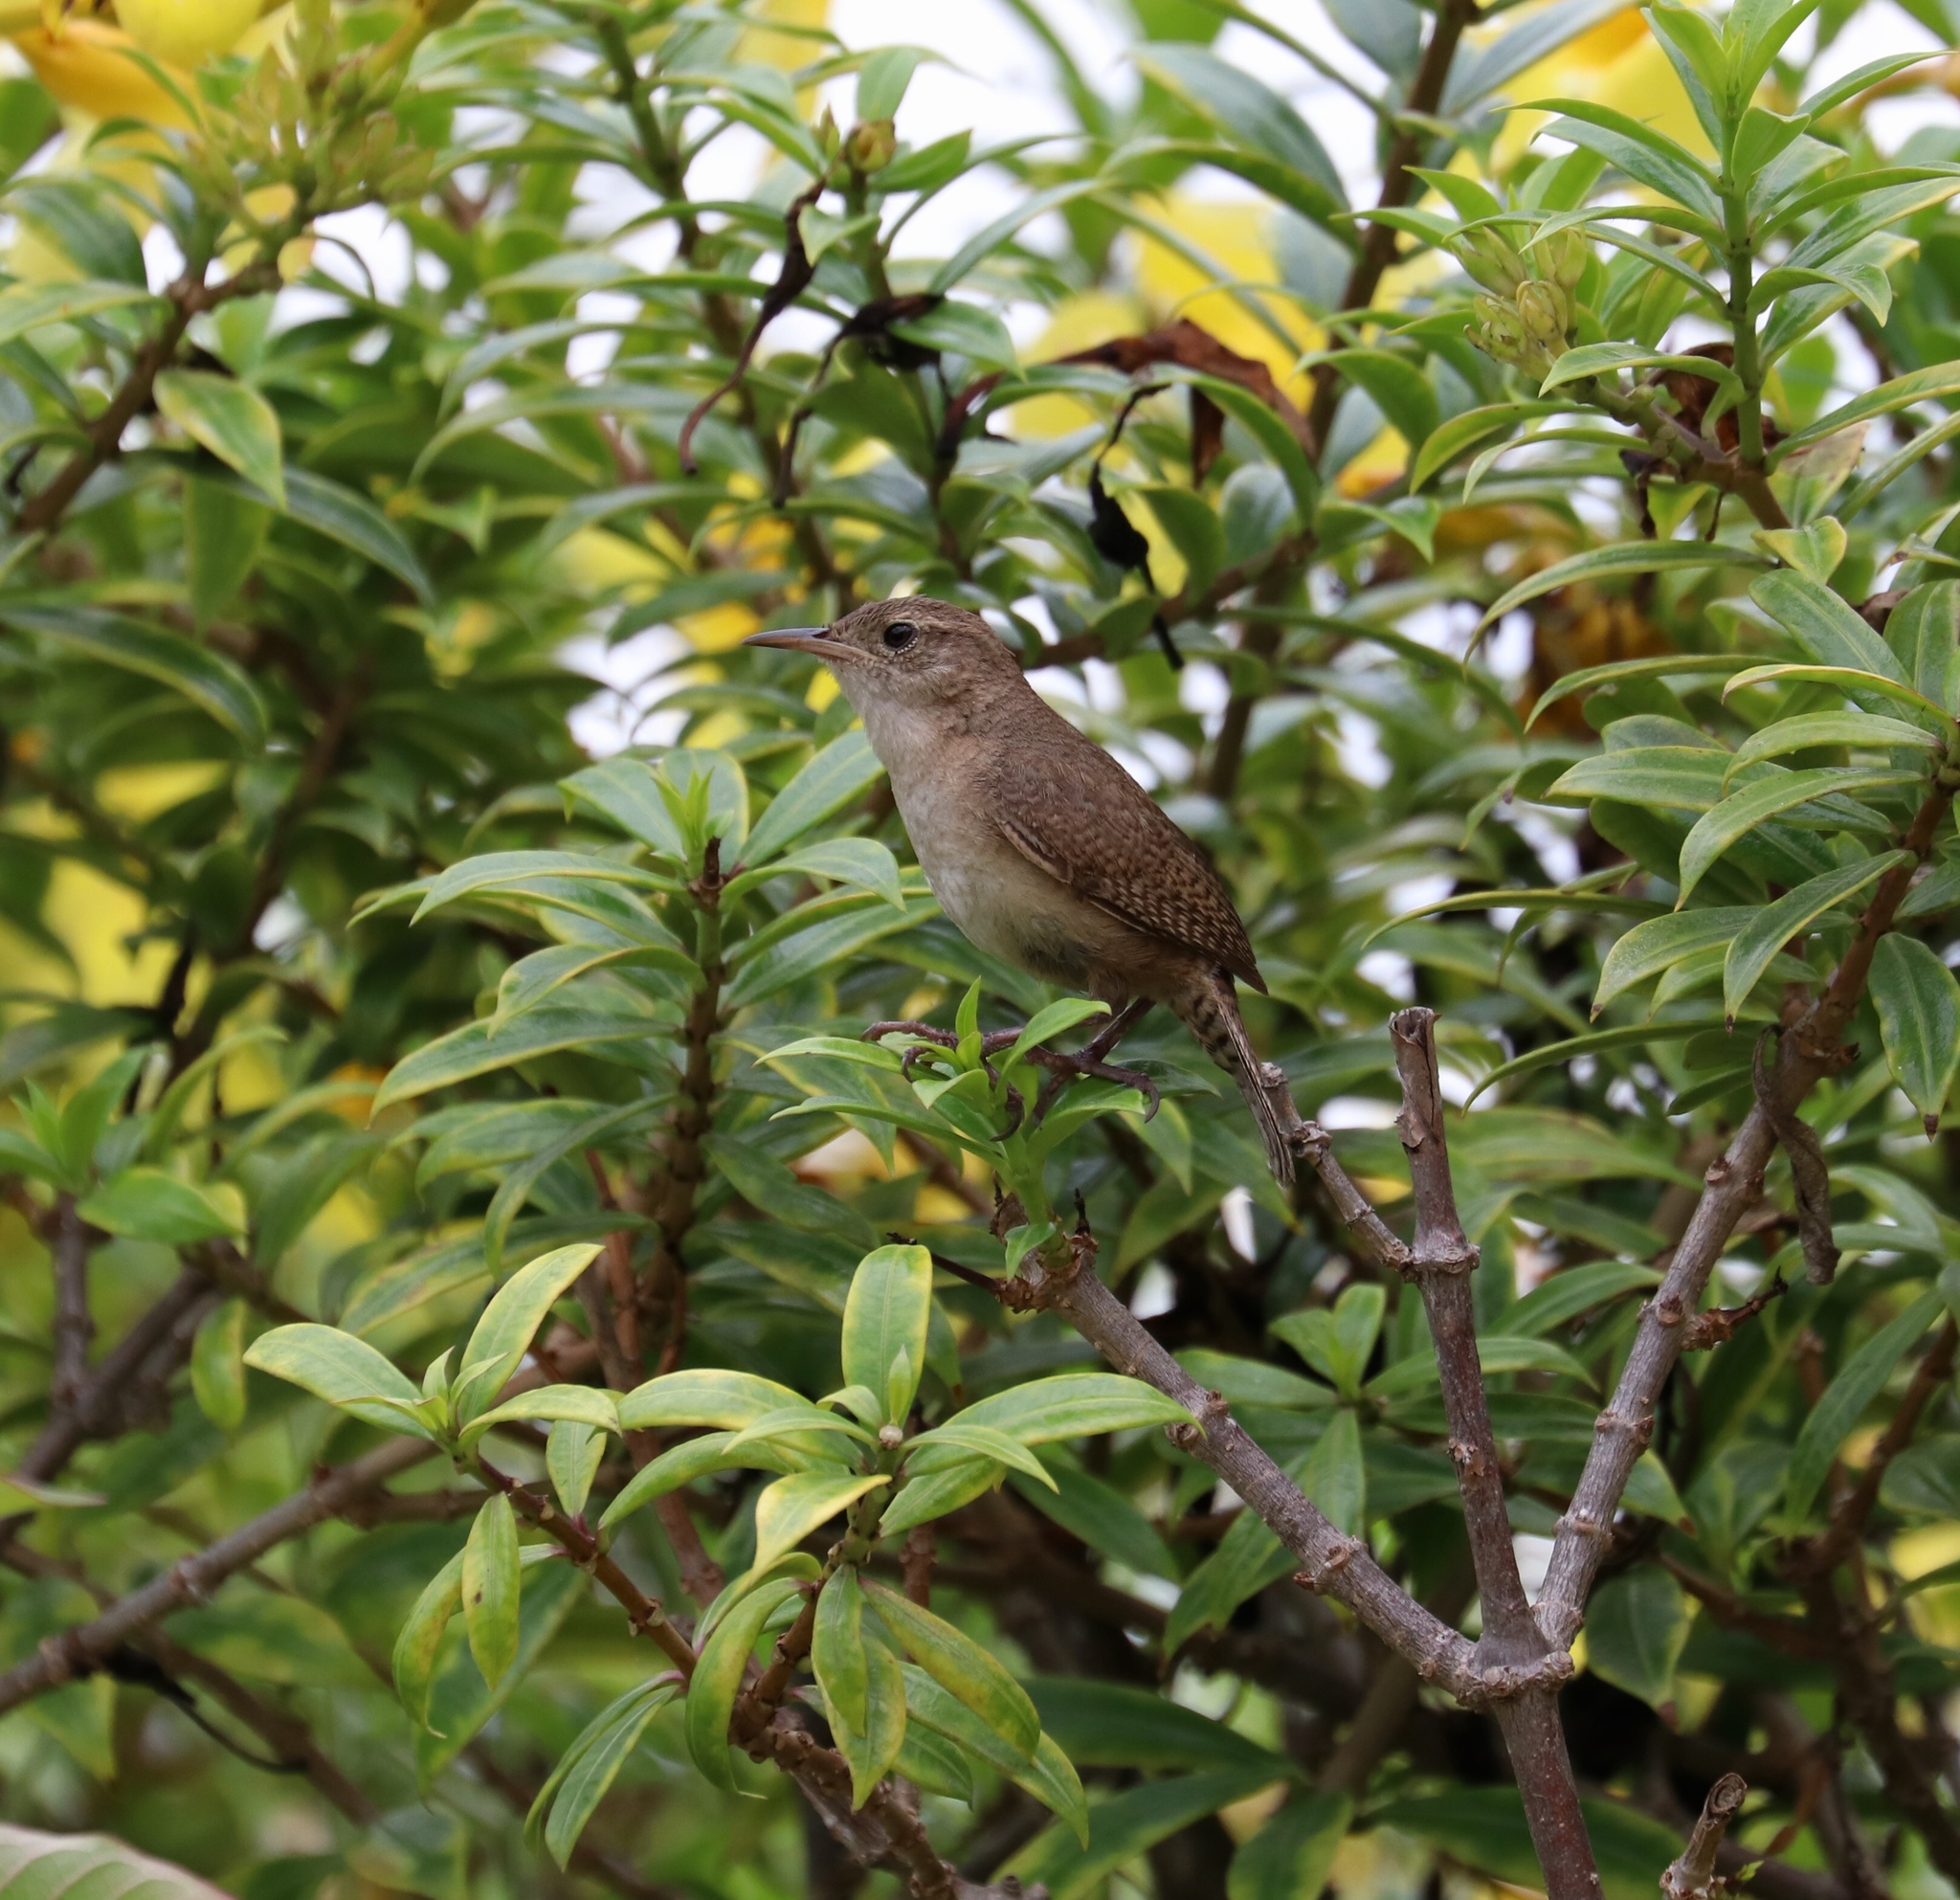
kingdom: Animalia
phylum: Chordata
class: Aves
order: Passeriformes
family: Troglodytidae
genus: Troglodytes
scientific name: Troglodytes aedon
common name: House wren
